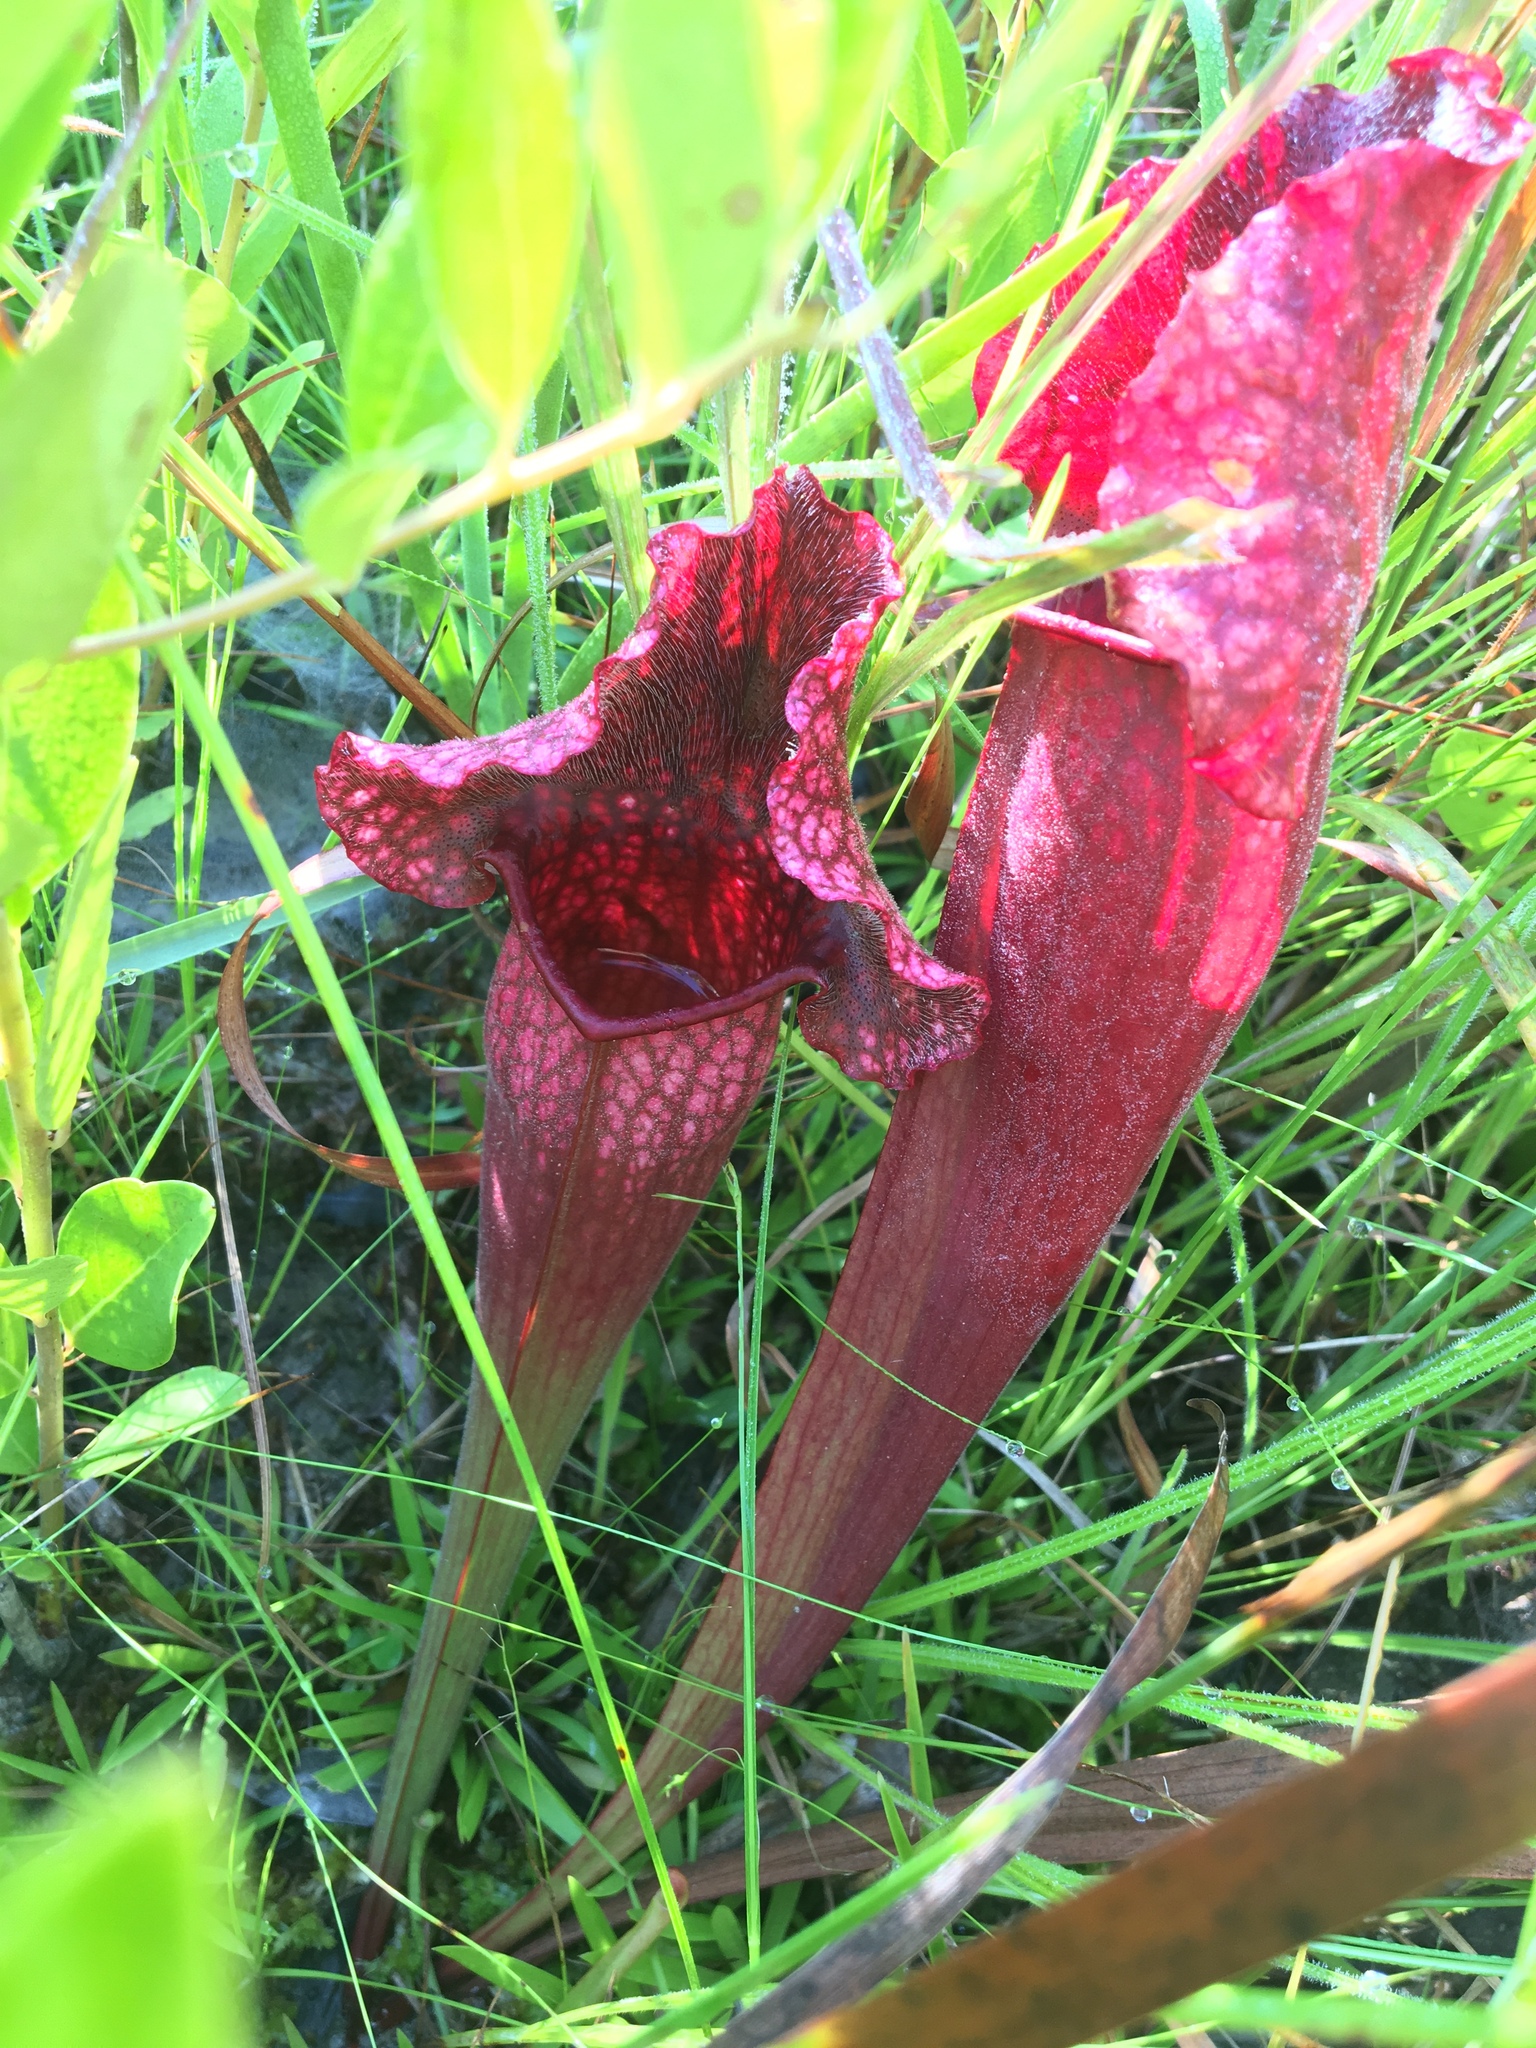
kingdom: Plantae
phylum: Tracheophyta
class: Magnoliopsida
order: Ericales
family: Sarraceniaceae
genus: Sarracenia
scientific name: Sarracenia mitchelliana
